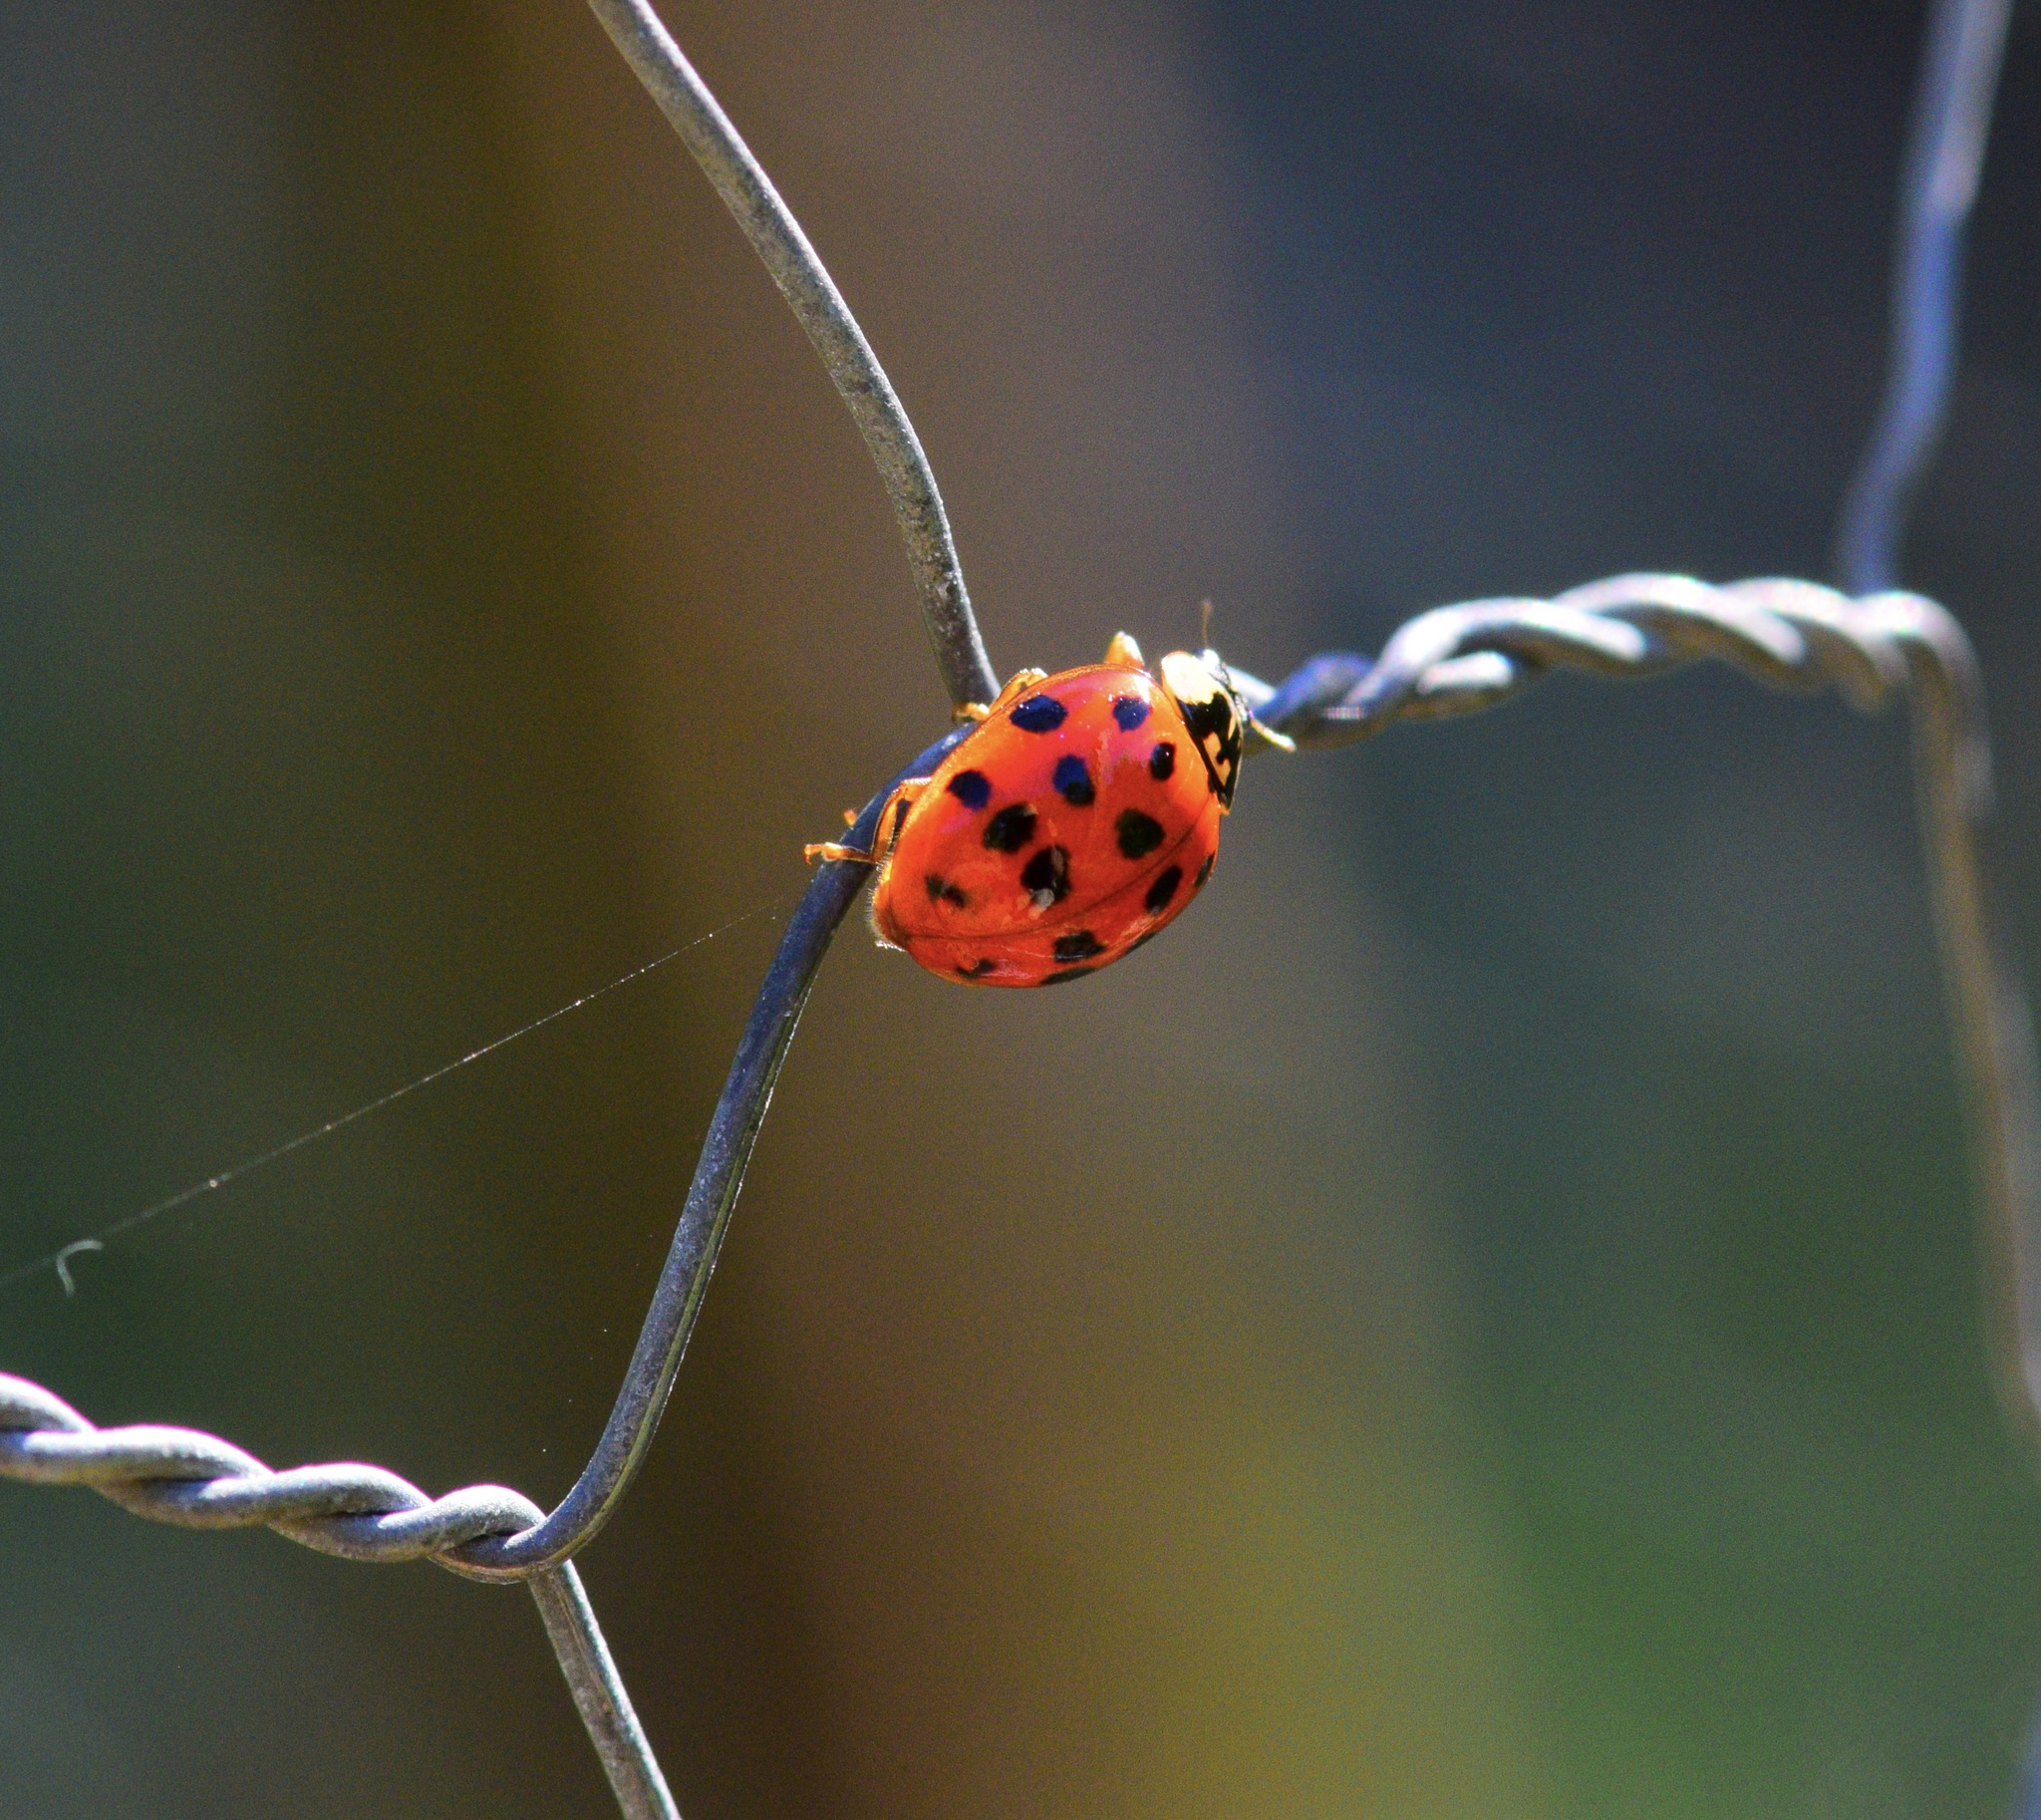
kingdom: Animalia
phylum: Arthropoda
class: Insecta
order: Coleoptera
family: Coccinellidae
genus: Harmonia
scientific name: Harmonia axyridis
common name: Harlequin ladybird
